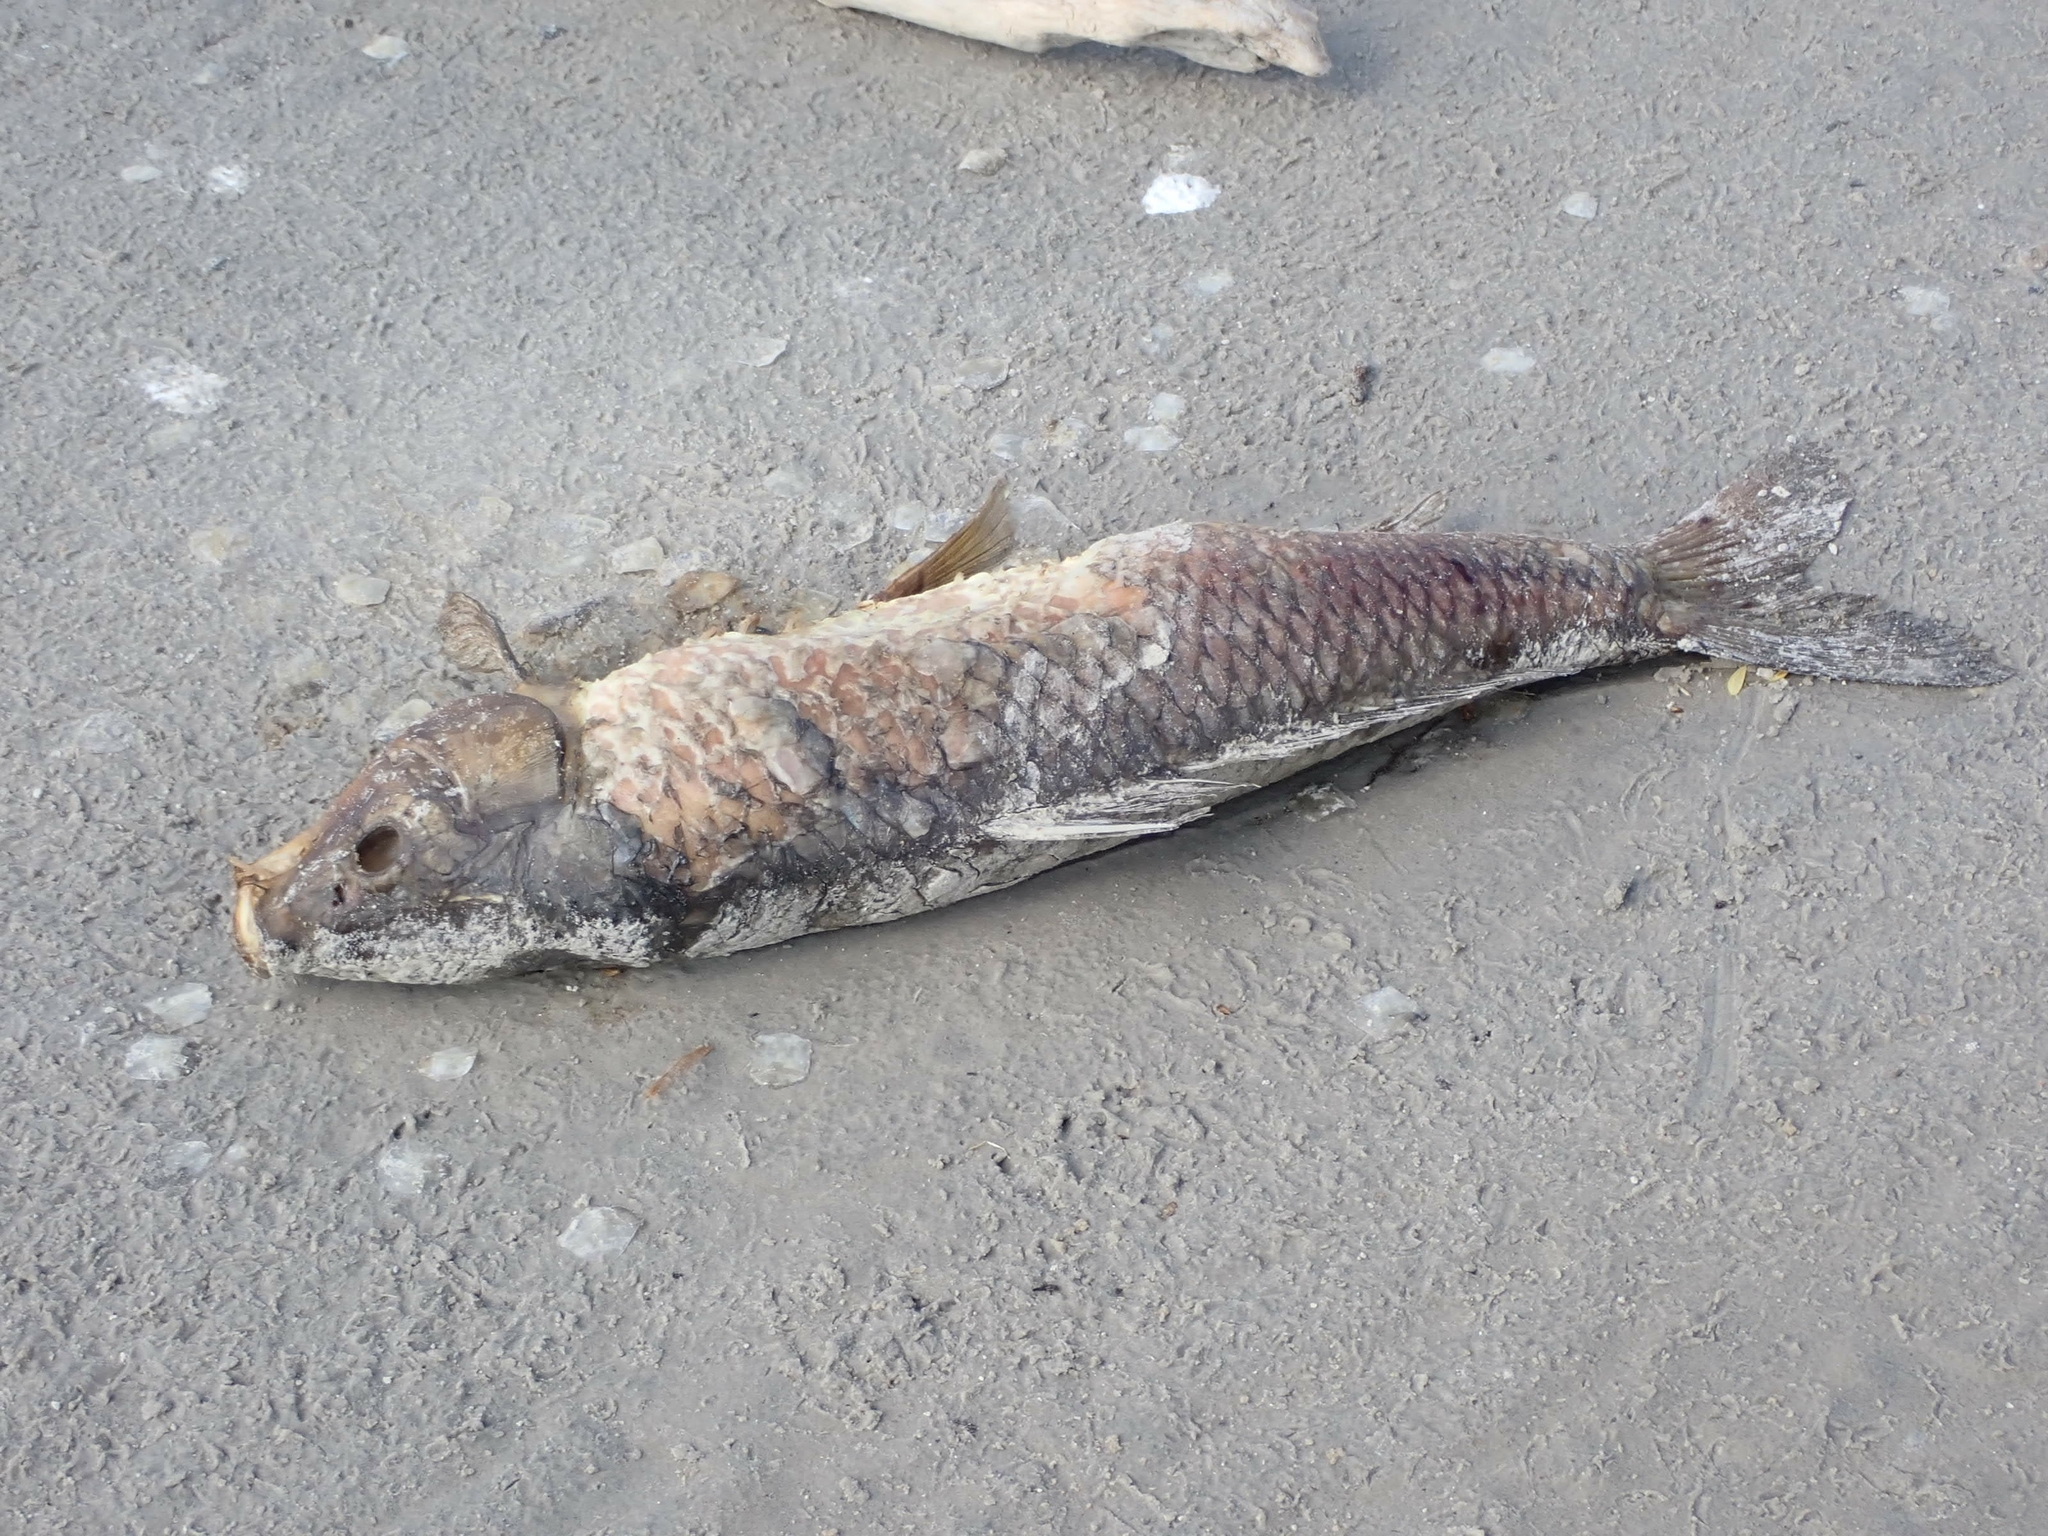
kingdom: Animalia
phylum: Chordata
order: Cypriniformes
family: Cyprinidae
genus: Cyprinus
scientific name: Cyprinus carpio
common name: Common carp
